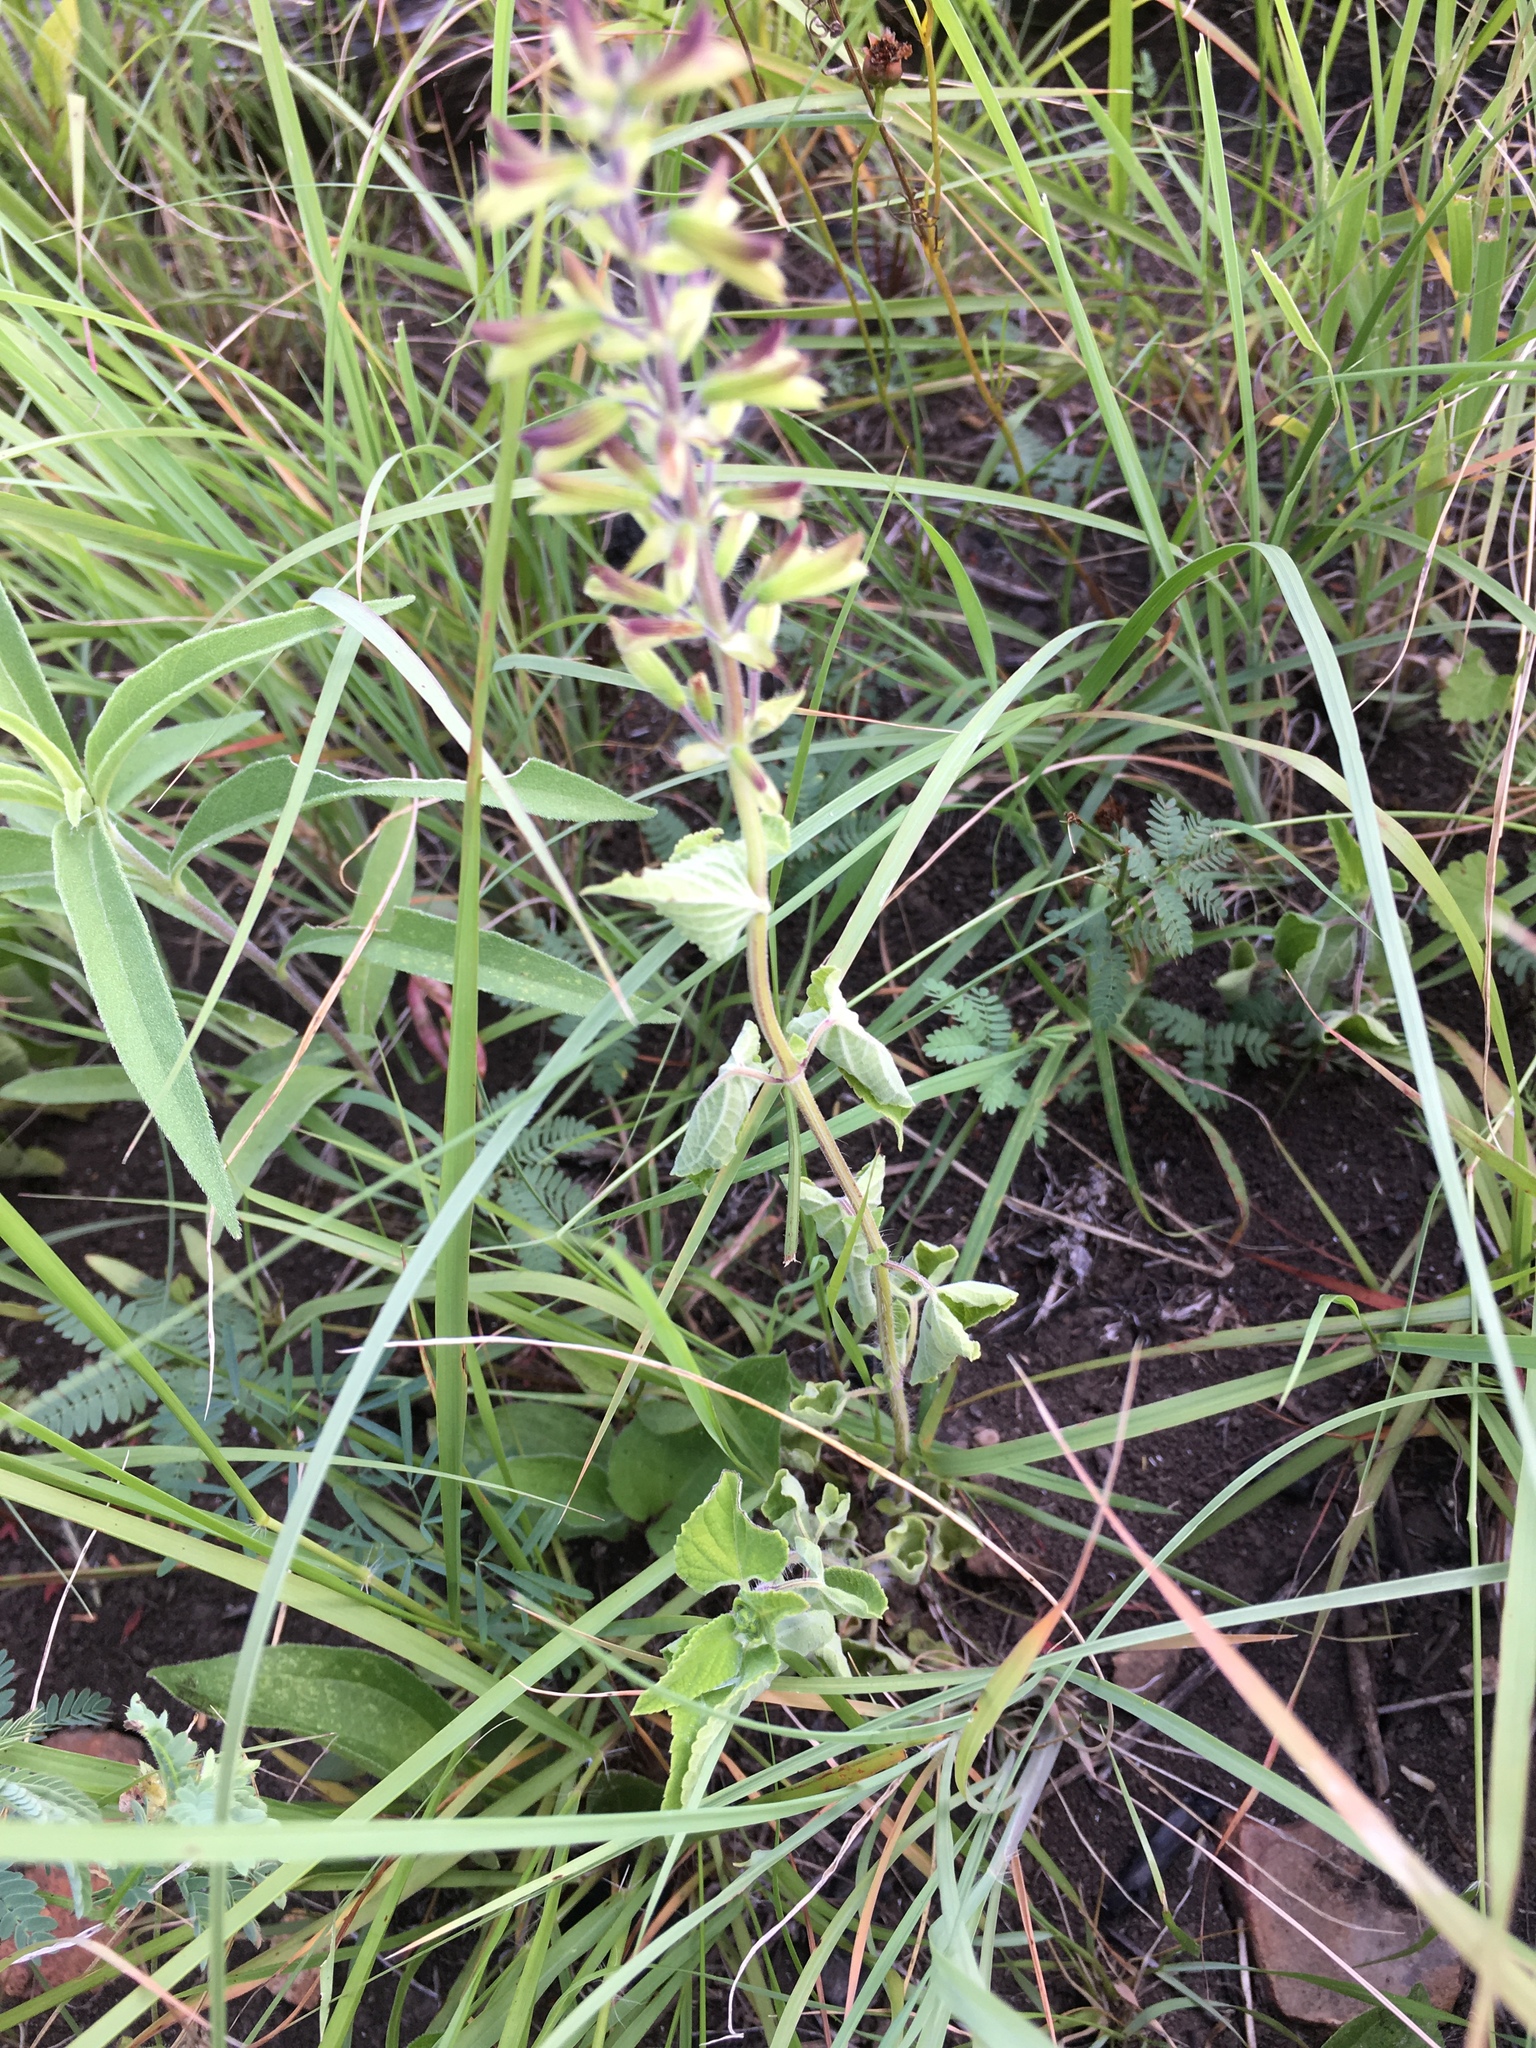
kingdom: Plantae
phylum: Tracheophyta
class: Magnoliopsida
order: Lamiales
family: Lamiaceae
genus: Salvia
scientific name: Salvia coccinea
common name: Blood sage
